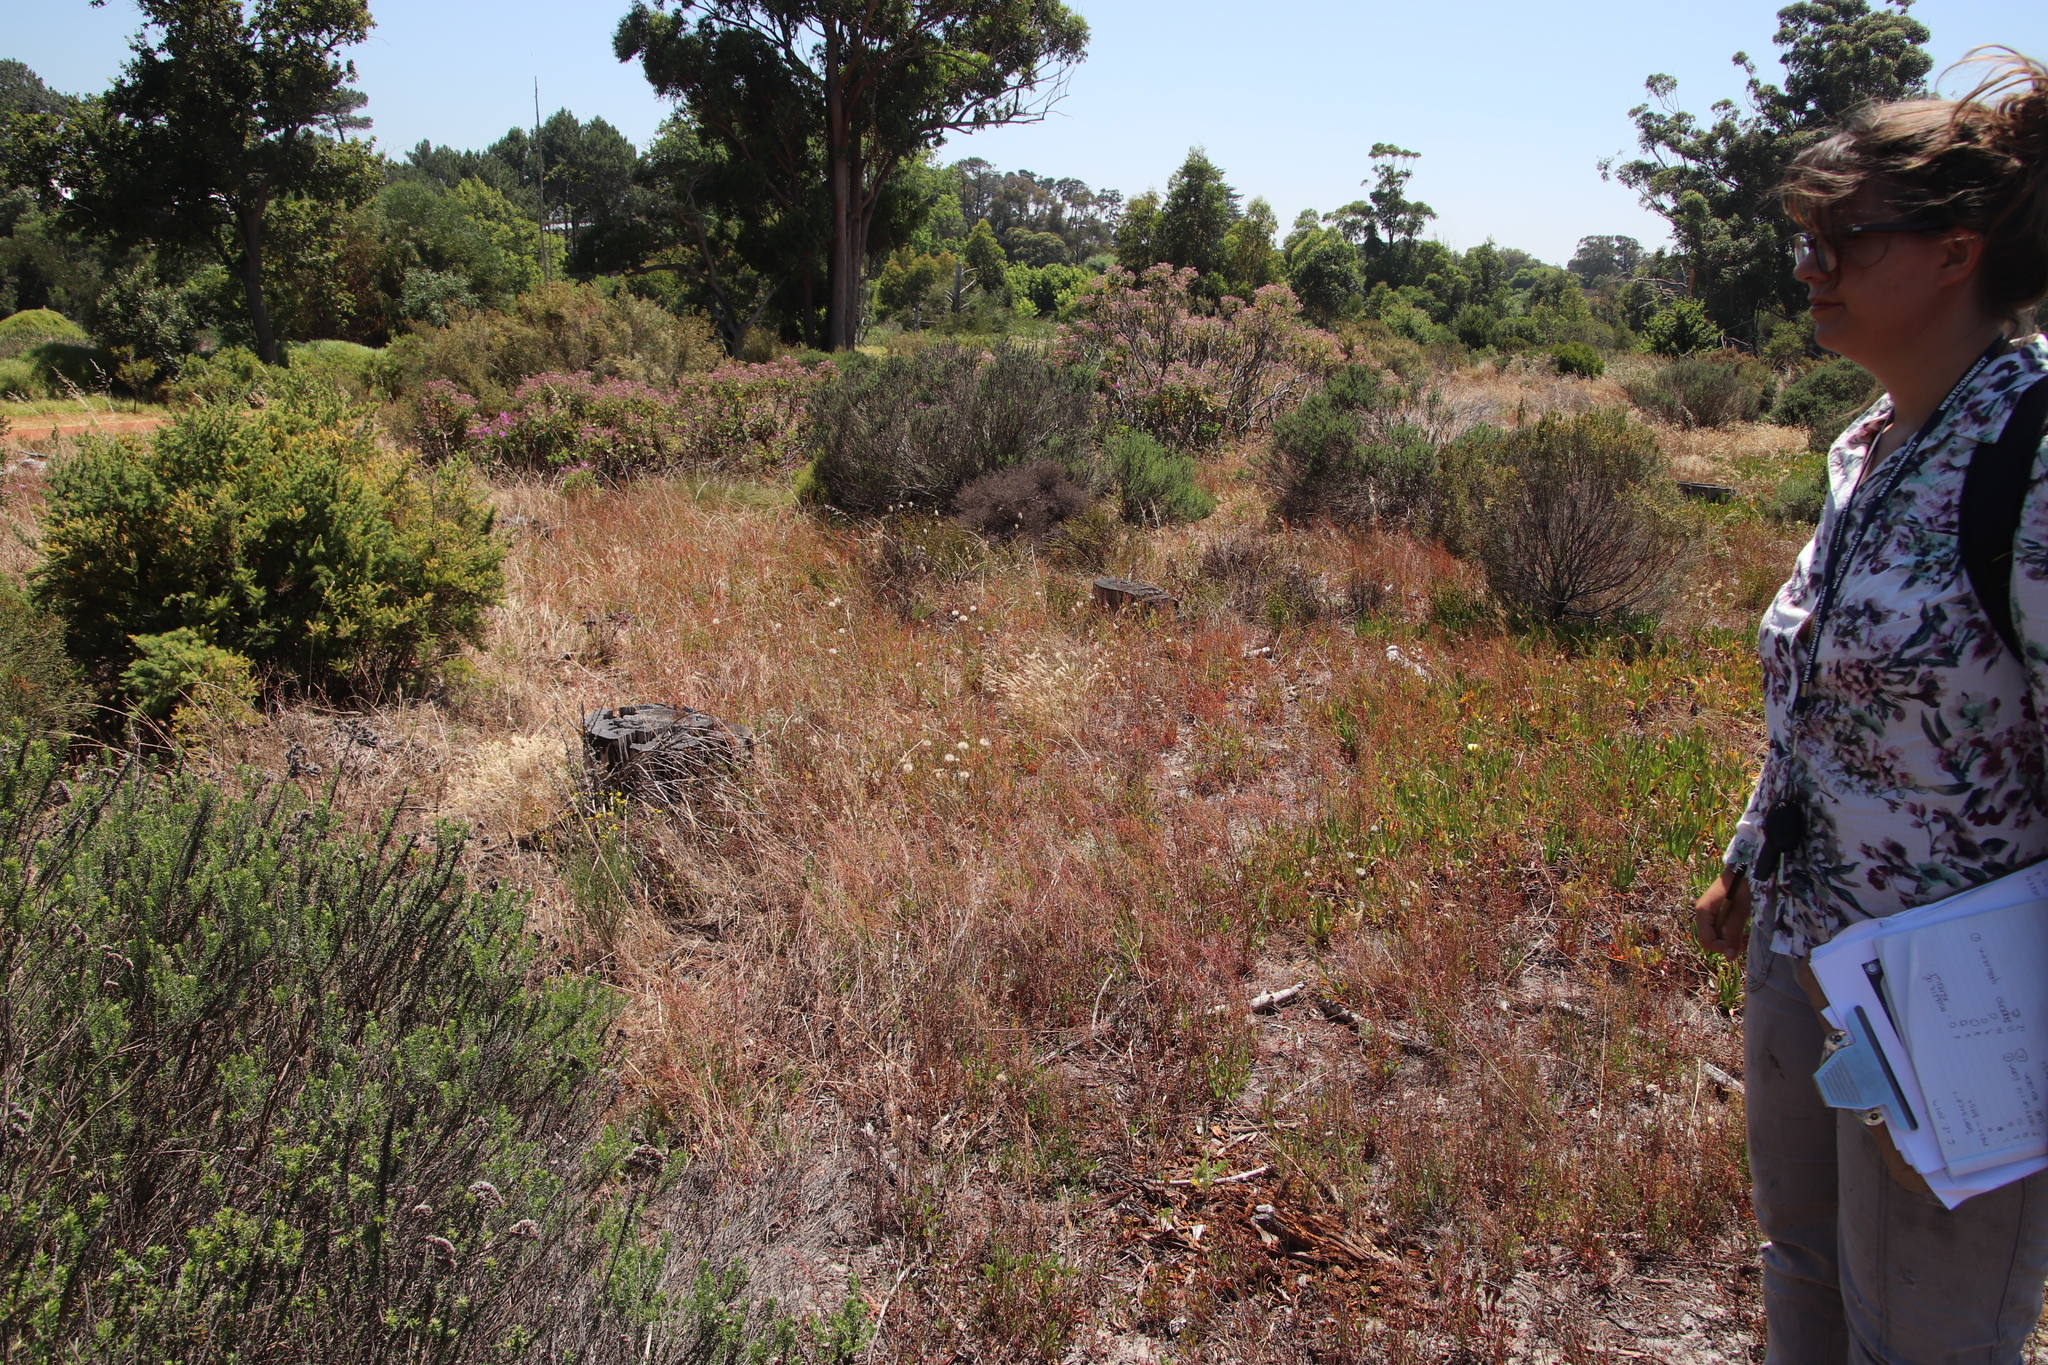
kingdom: Plantae
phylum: Tracheophyta
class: Liliopsida
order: Poales
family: Poaceae
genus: Pentameris
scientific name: Pentameris pallida
